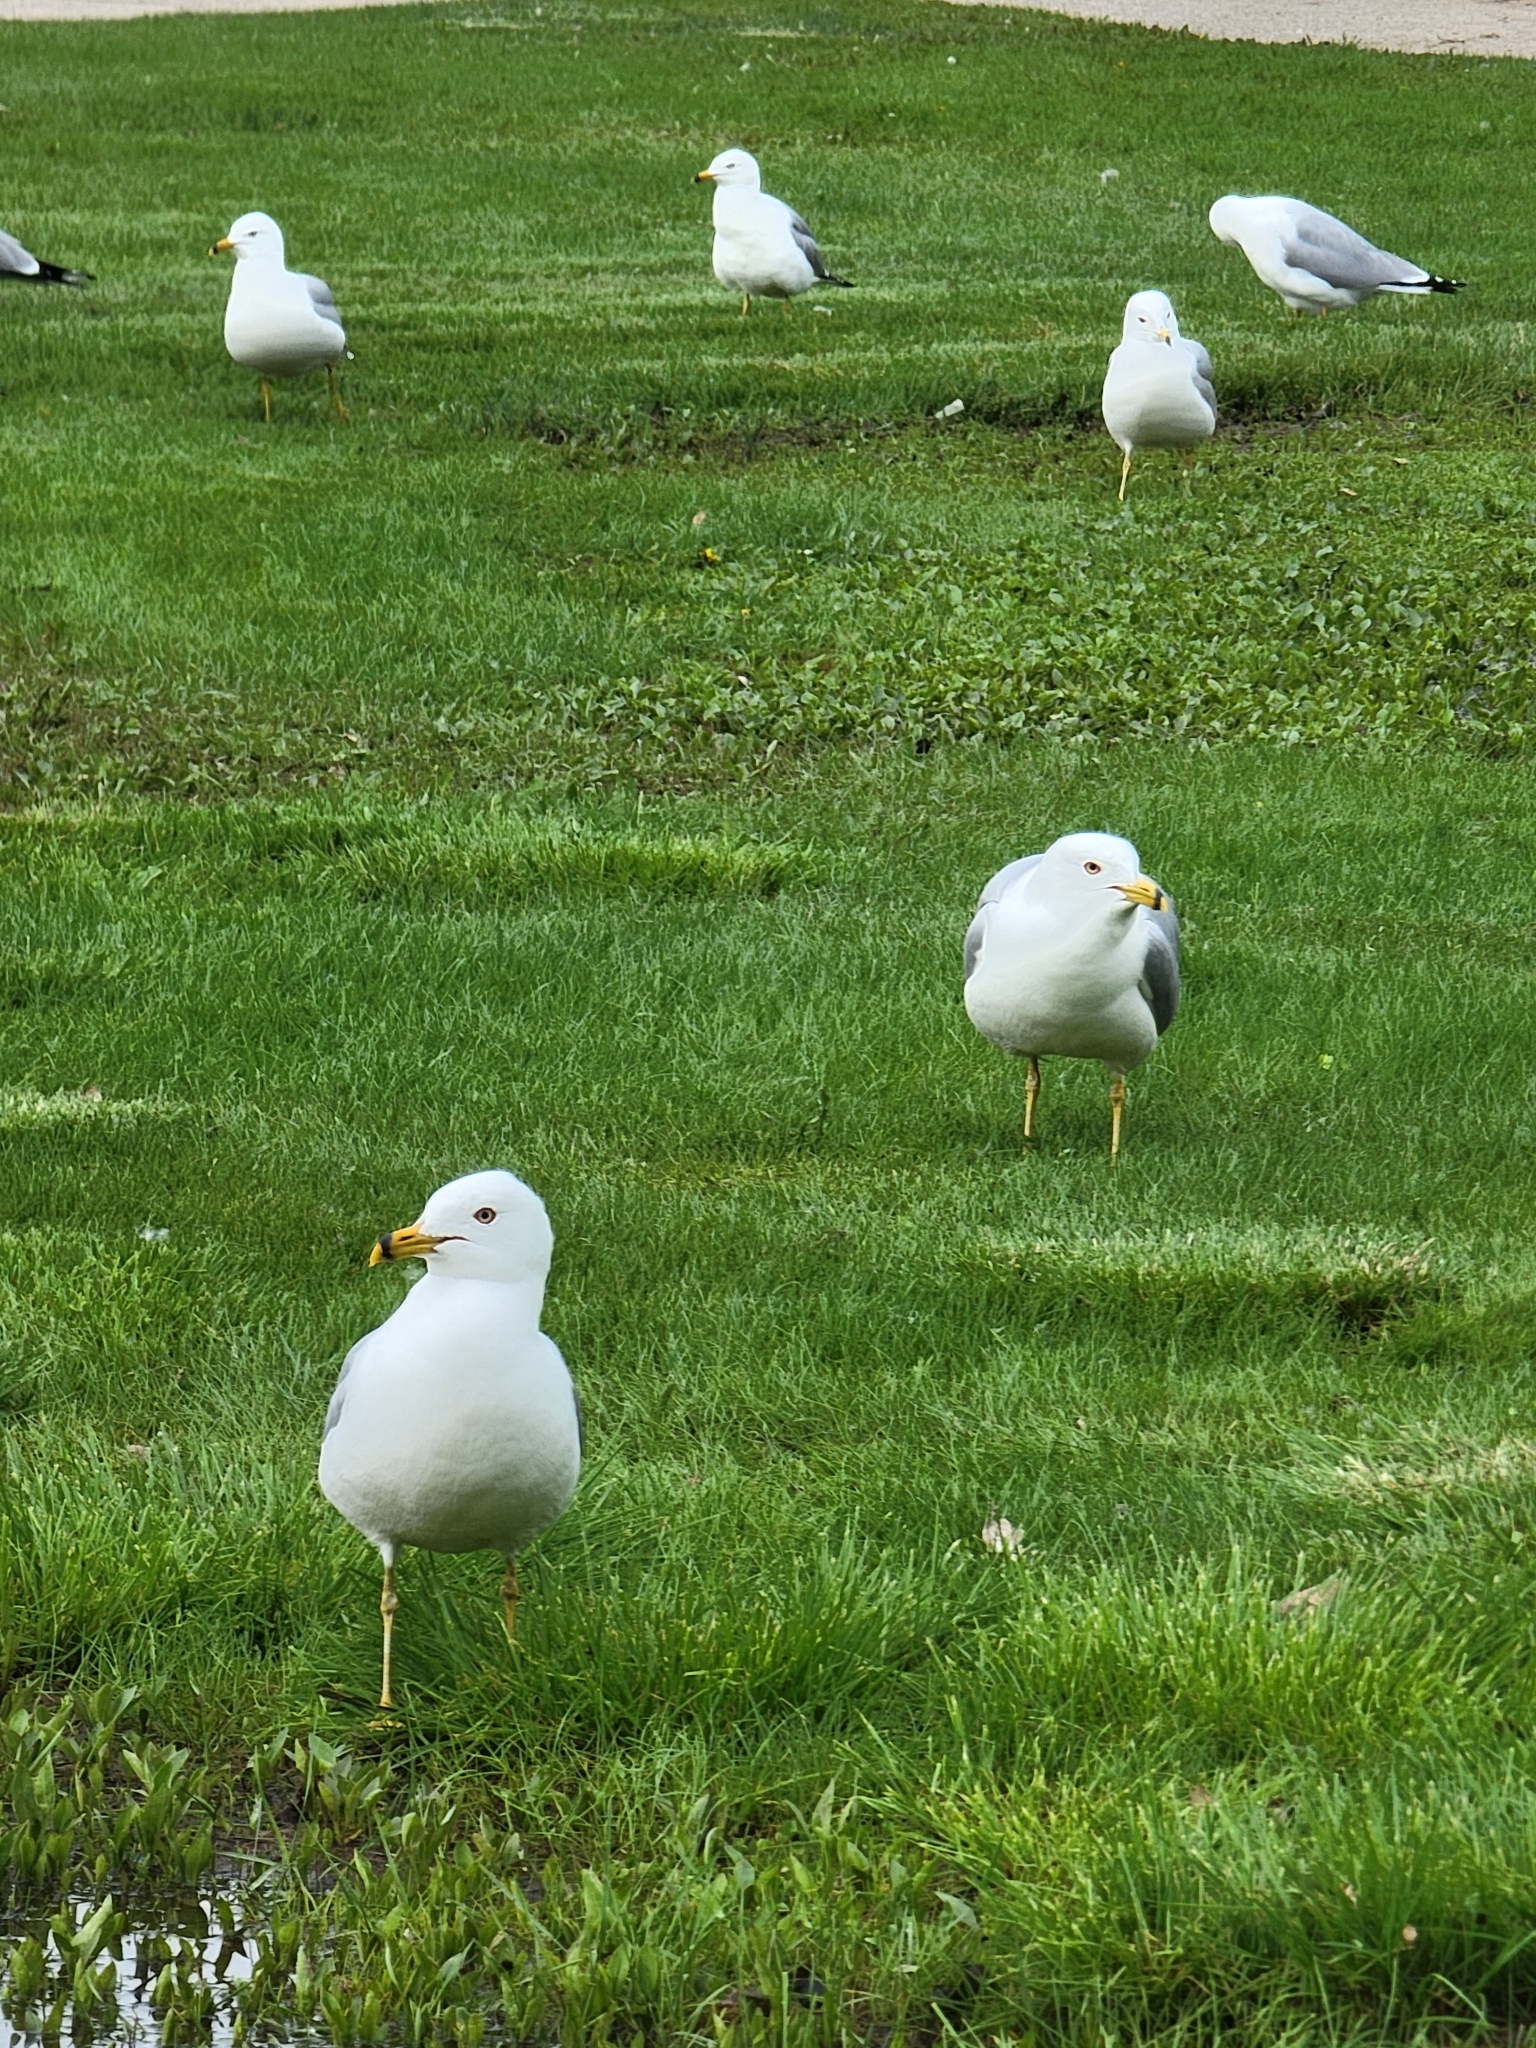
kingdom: Animalia
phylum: Chordata
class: Aves
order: Charadriiformes
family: Laridae
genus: Larus
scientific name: Larus delawarensis
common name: Ring-billed gull
